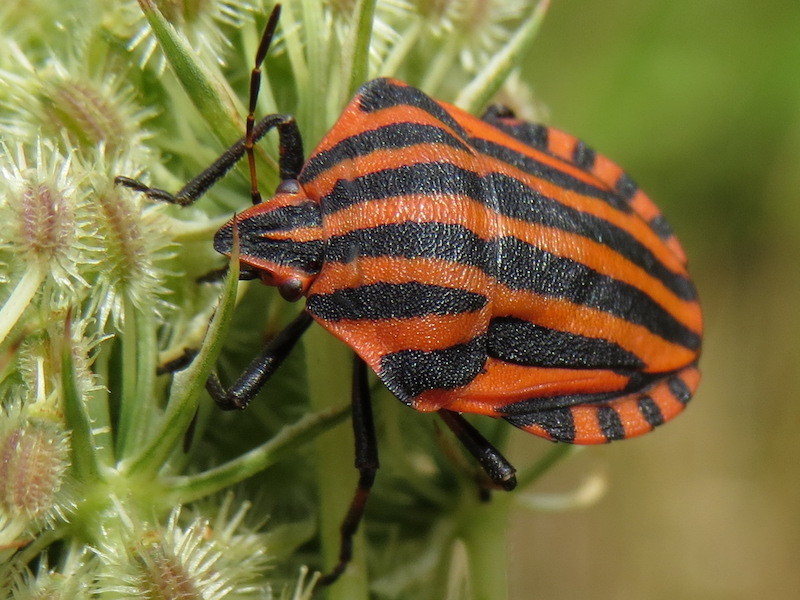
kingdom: Animalia
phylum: Arthropoda
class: Insecta
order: Hemiptera
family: Pentatomidae
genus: Graphosoma
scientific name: Graphosoma italicum
